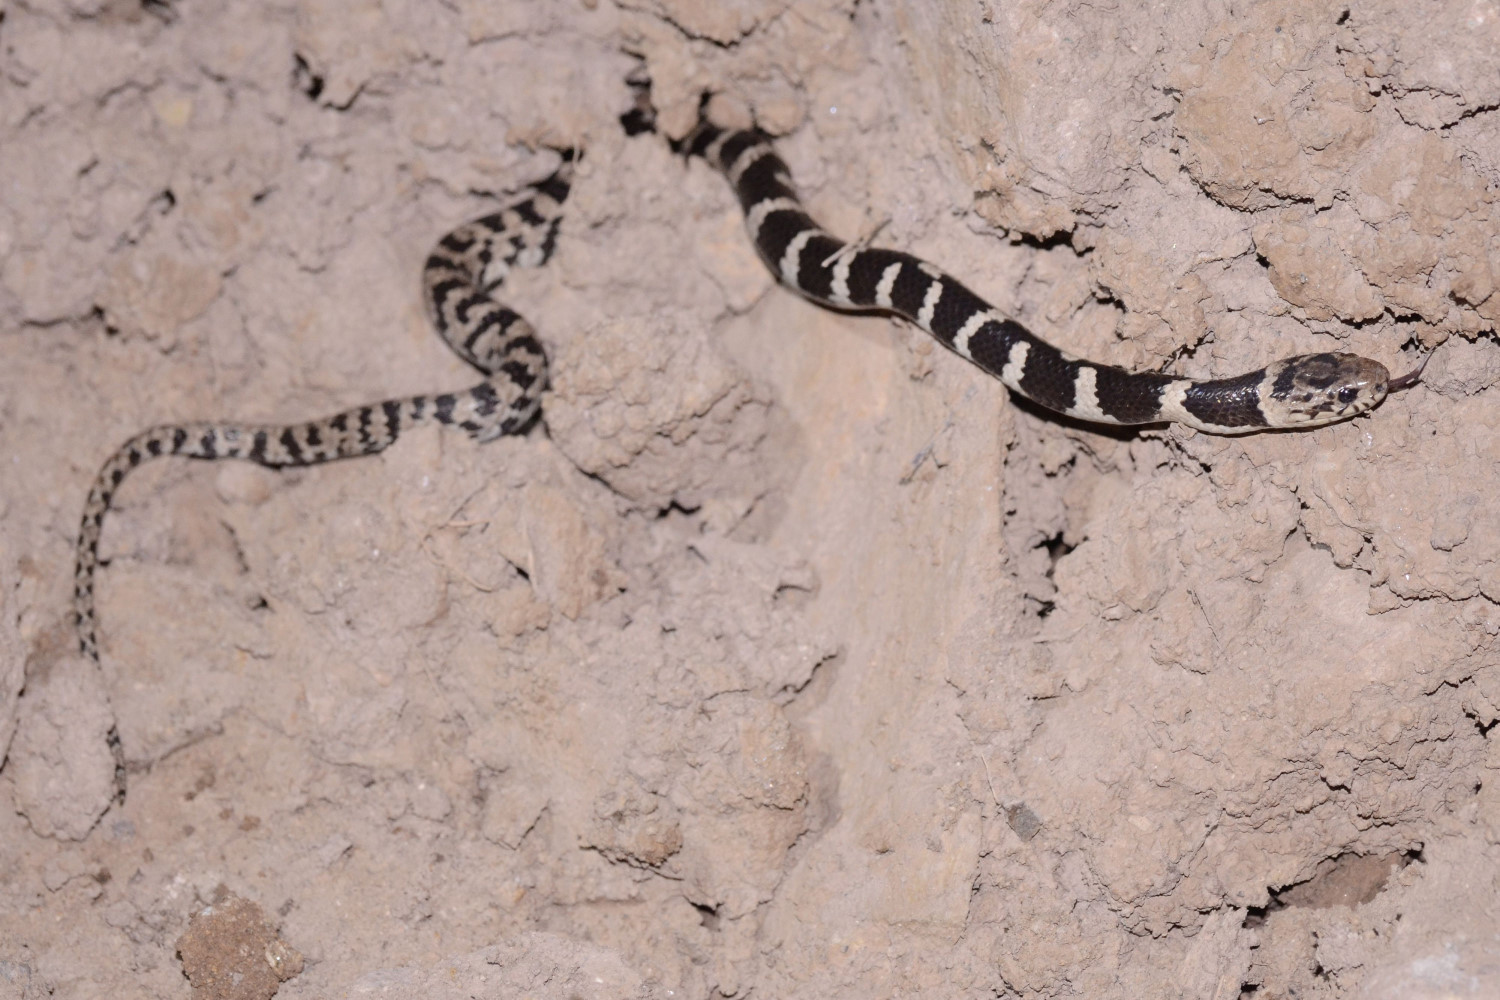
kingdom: Animalia
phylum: Chordata
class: Squamata
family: Colubridae
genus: Dipsas
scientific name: Dipsas williamsi
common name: Williams' tree snake
